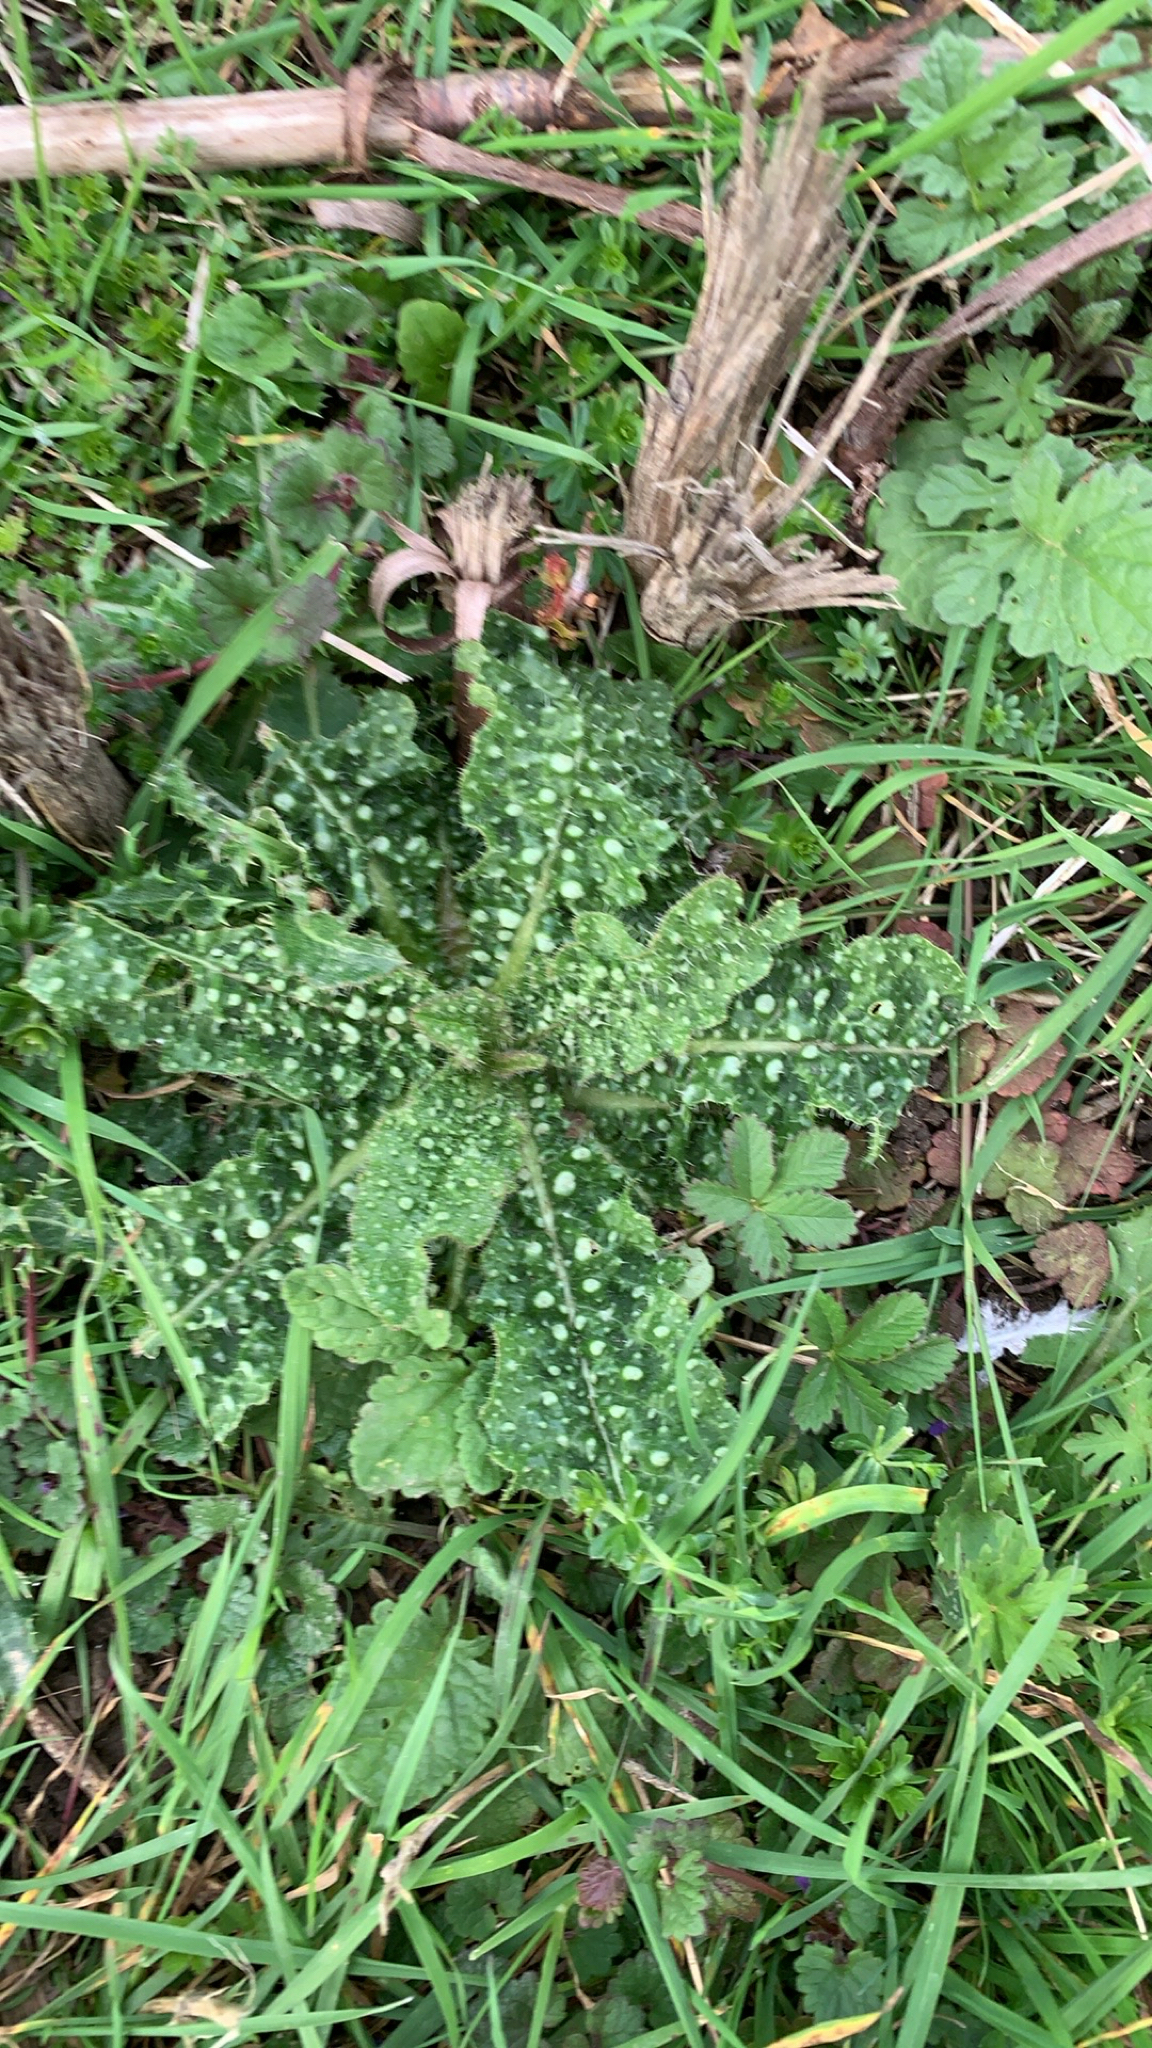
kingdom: Plantae
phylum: Tracheophyta
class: Magnoliopsida
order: Asterales
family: Asteraceae
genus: Helminthotheca
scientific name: Helminthotheca echioides
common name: Ox-tongue
